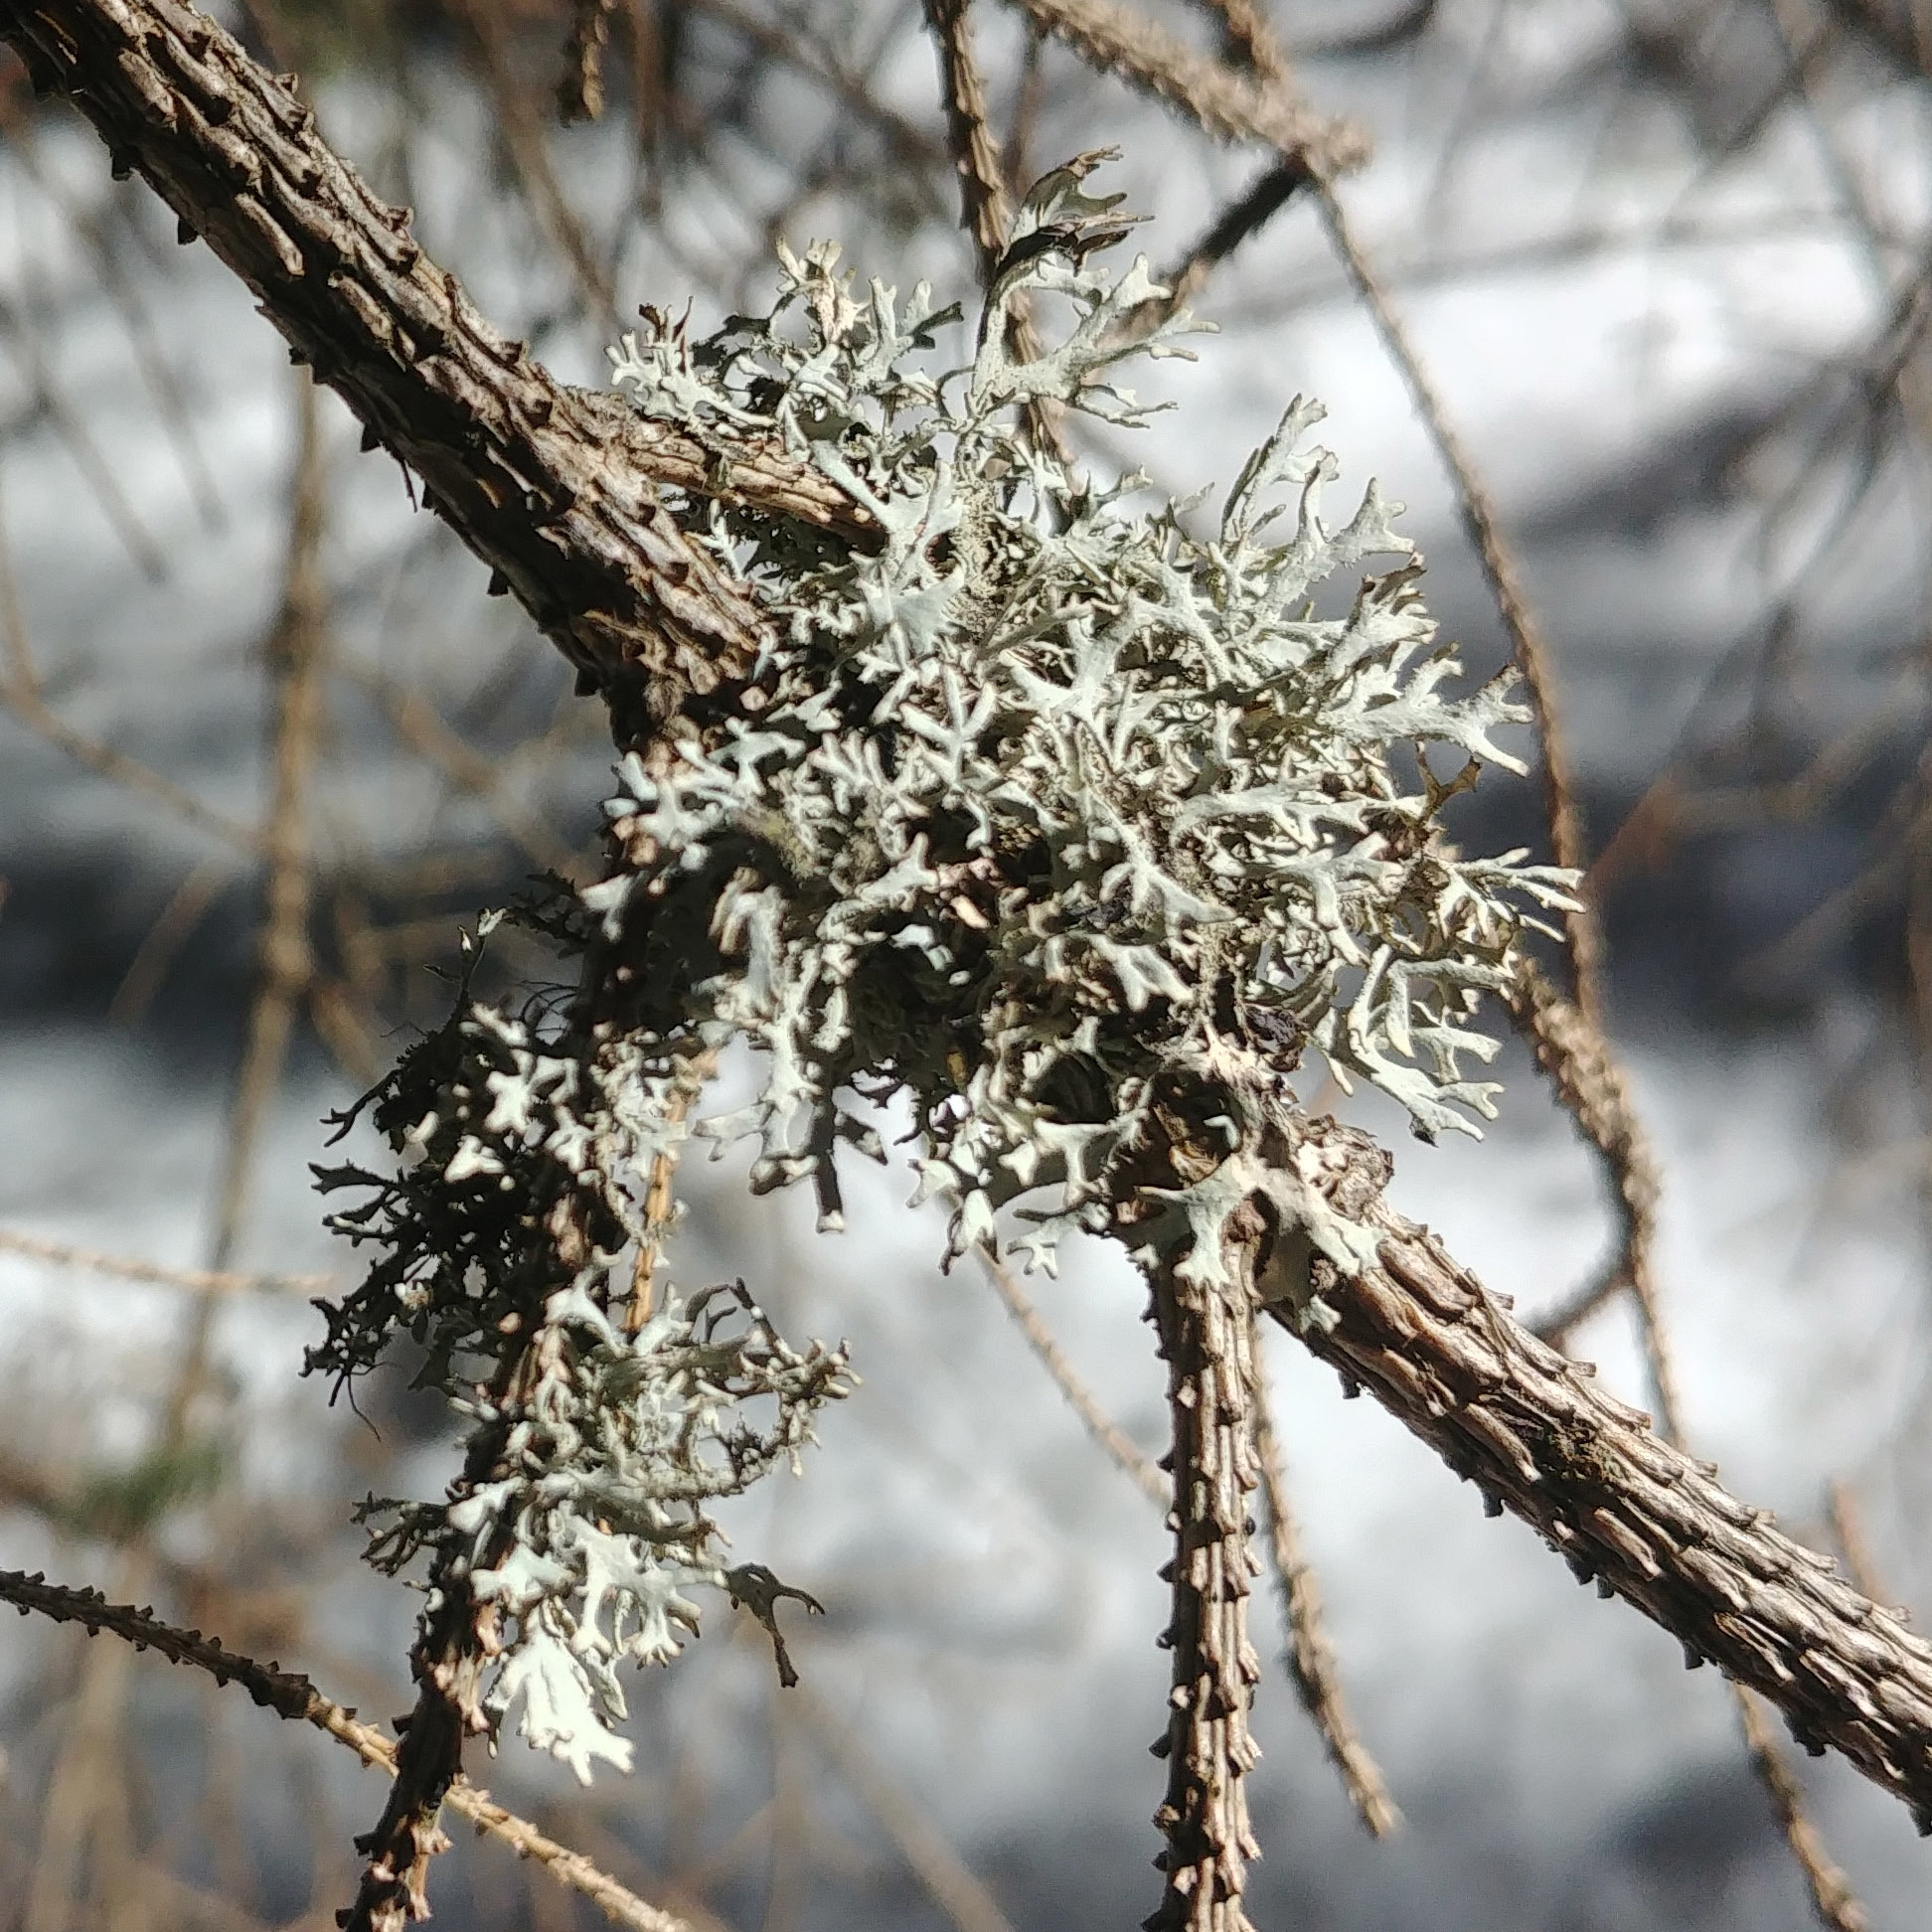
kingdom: Fungi
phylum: Ascomycota
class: Lecanoromycetes
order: Lecanorales
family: Parmeliaceae
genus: Pseudevernia
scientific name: Pseudevernia furfuracea
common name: Tree moss
